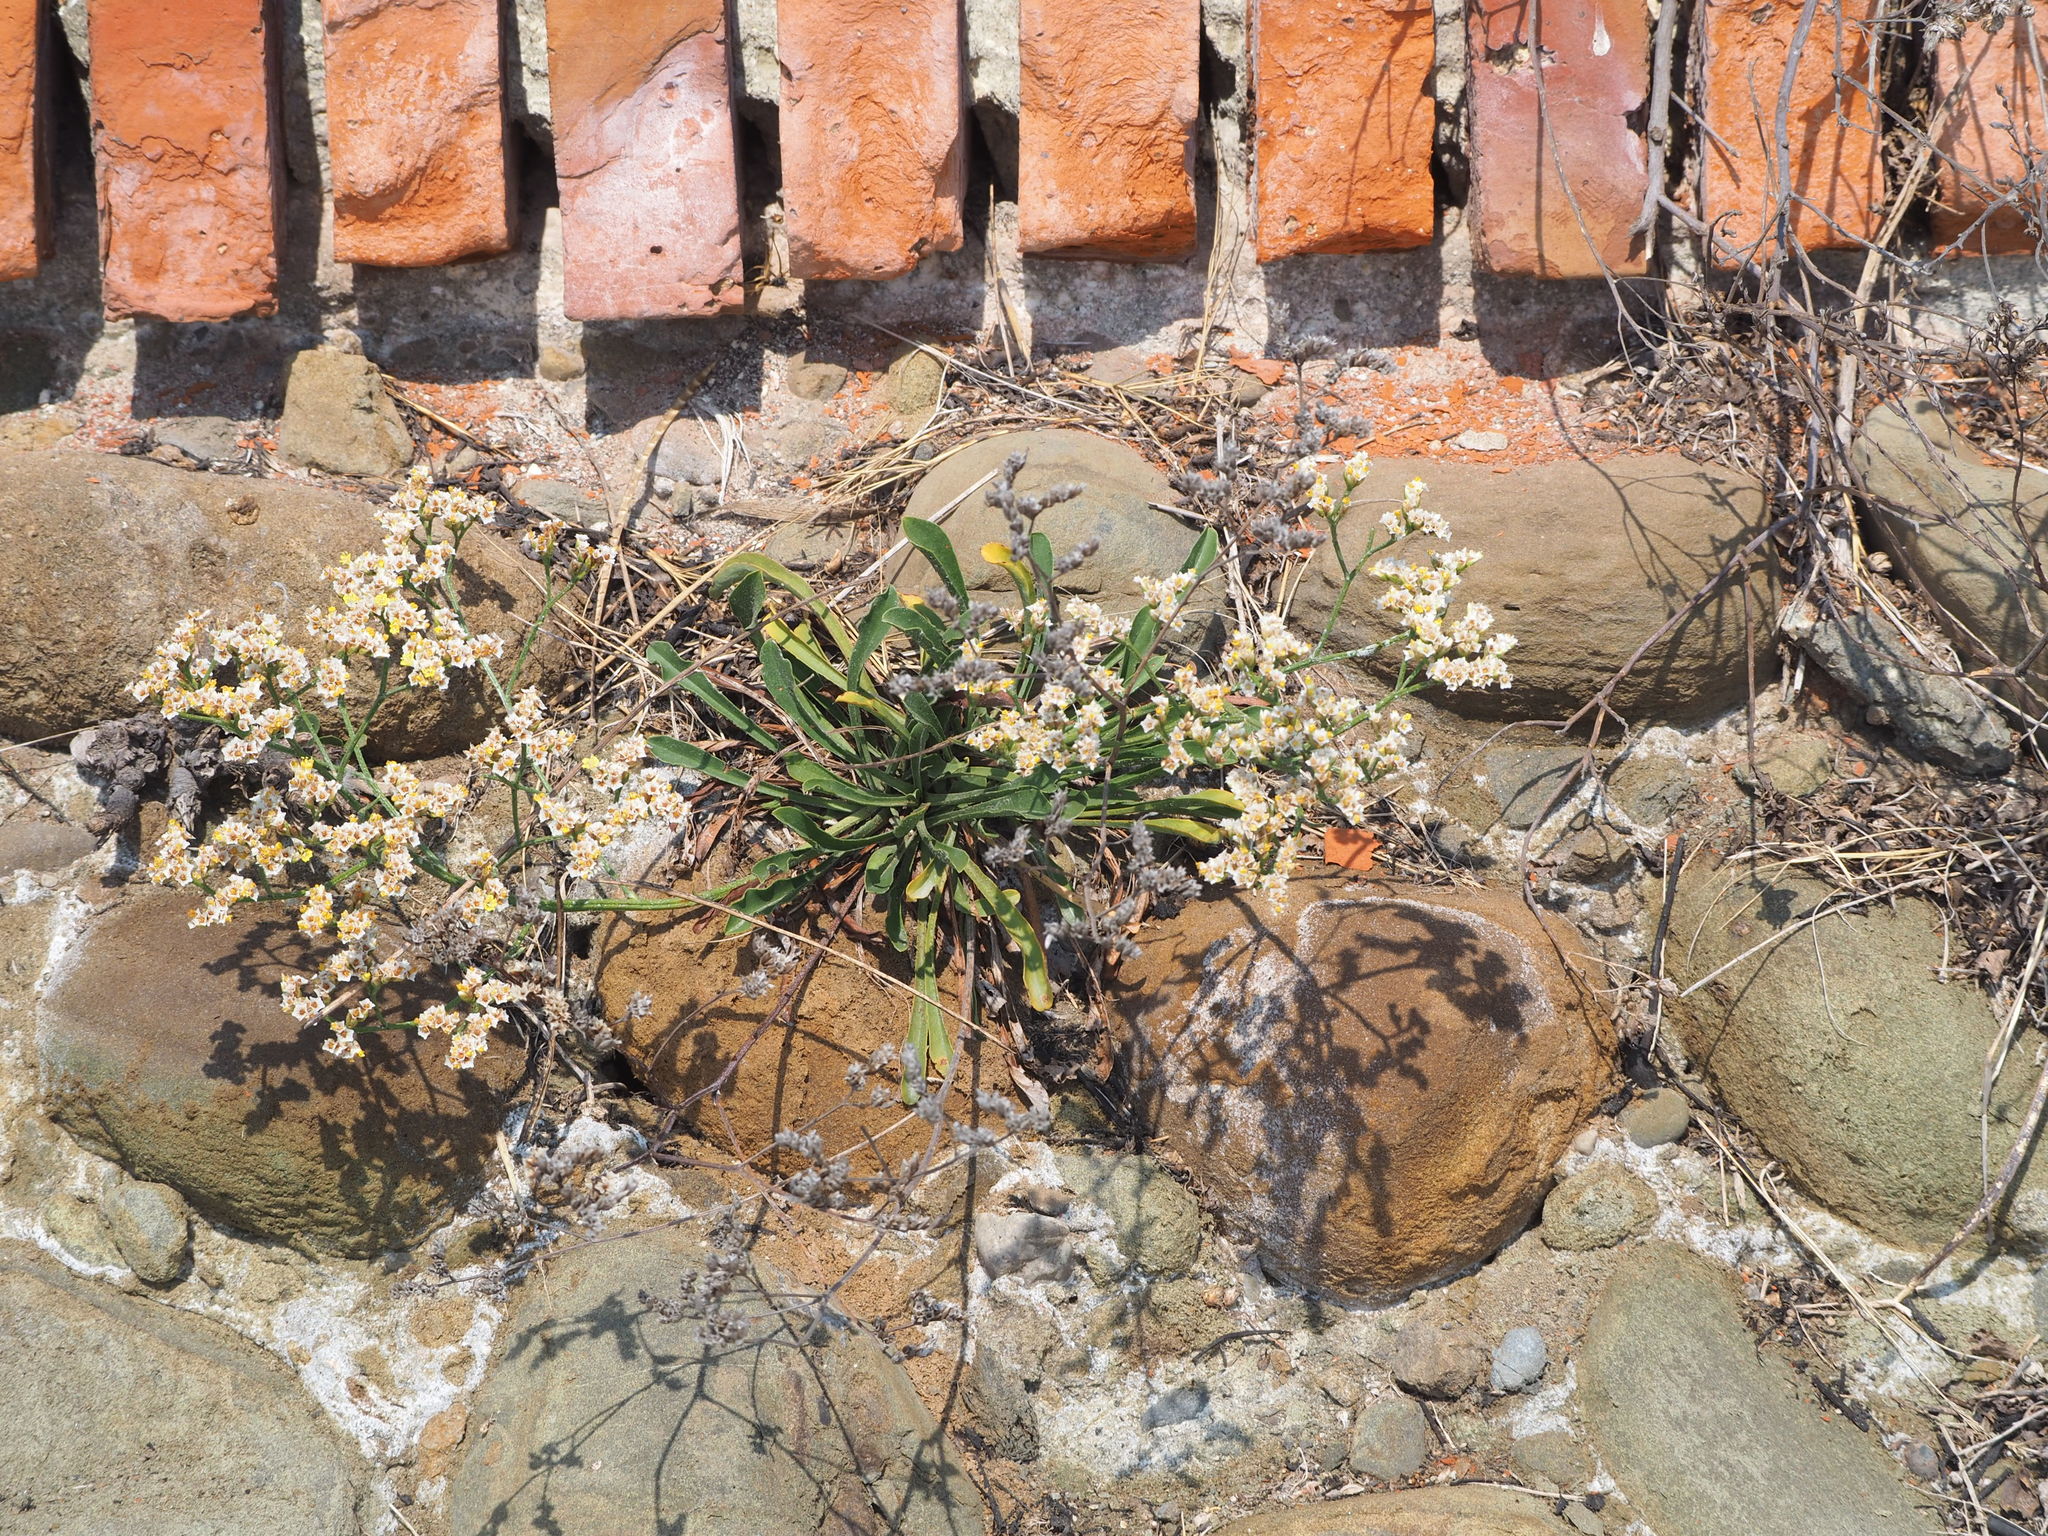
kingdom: Plantae
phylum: Tracheophyta
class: Magnoliopsida
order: Caryophyllales
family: Plumbaginaceae
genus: Limonium
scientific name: Limonium sinense
